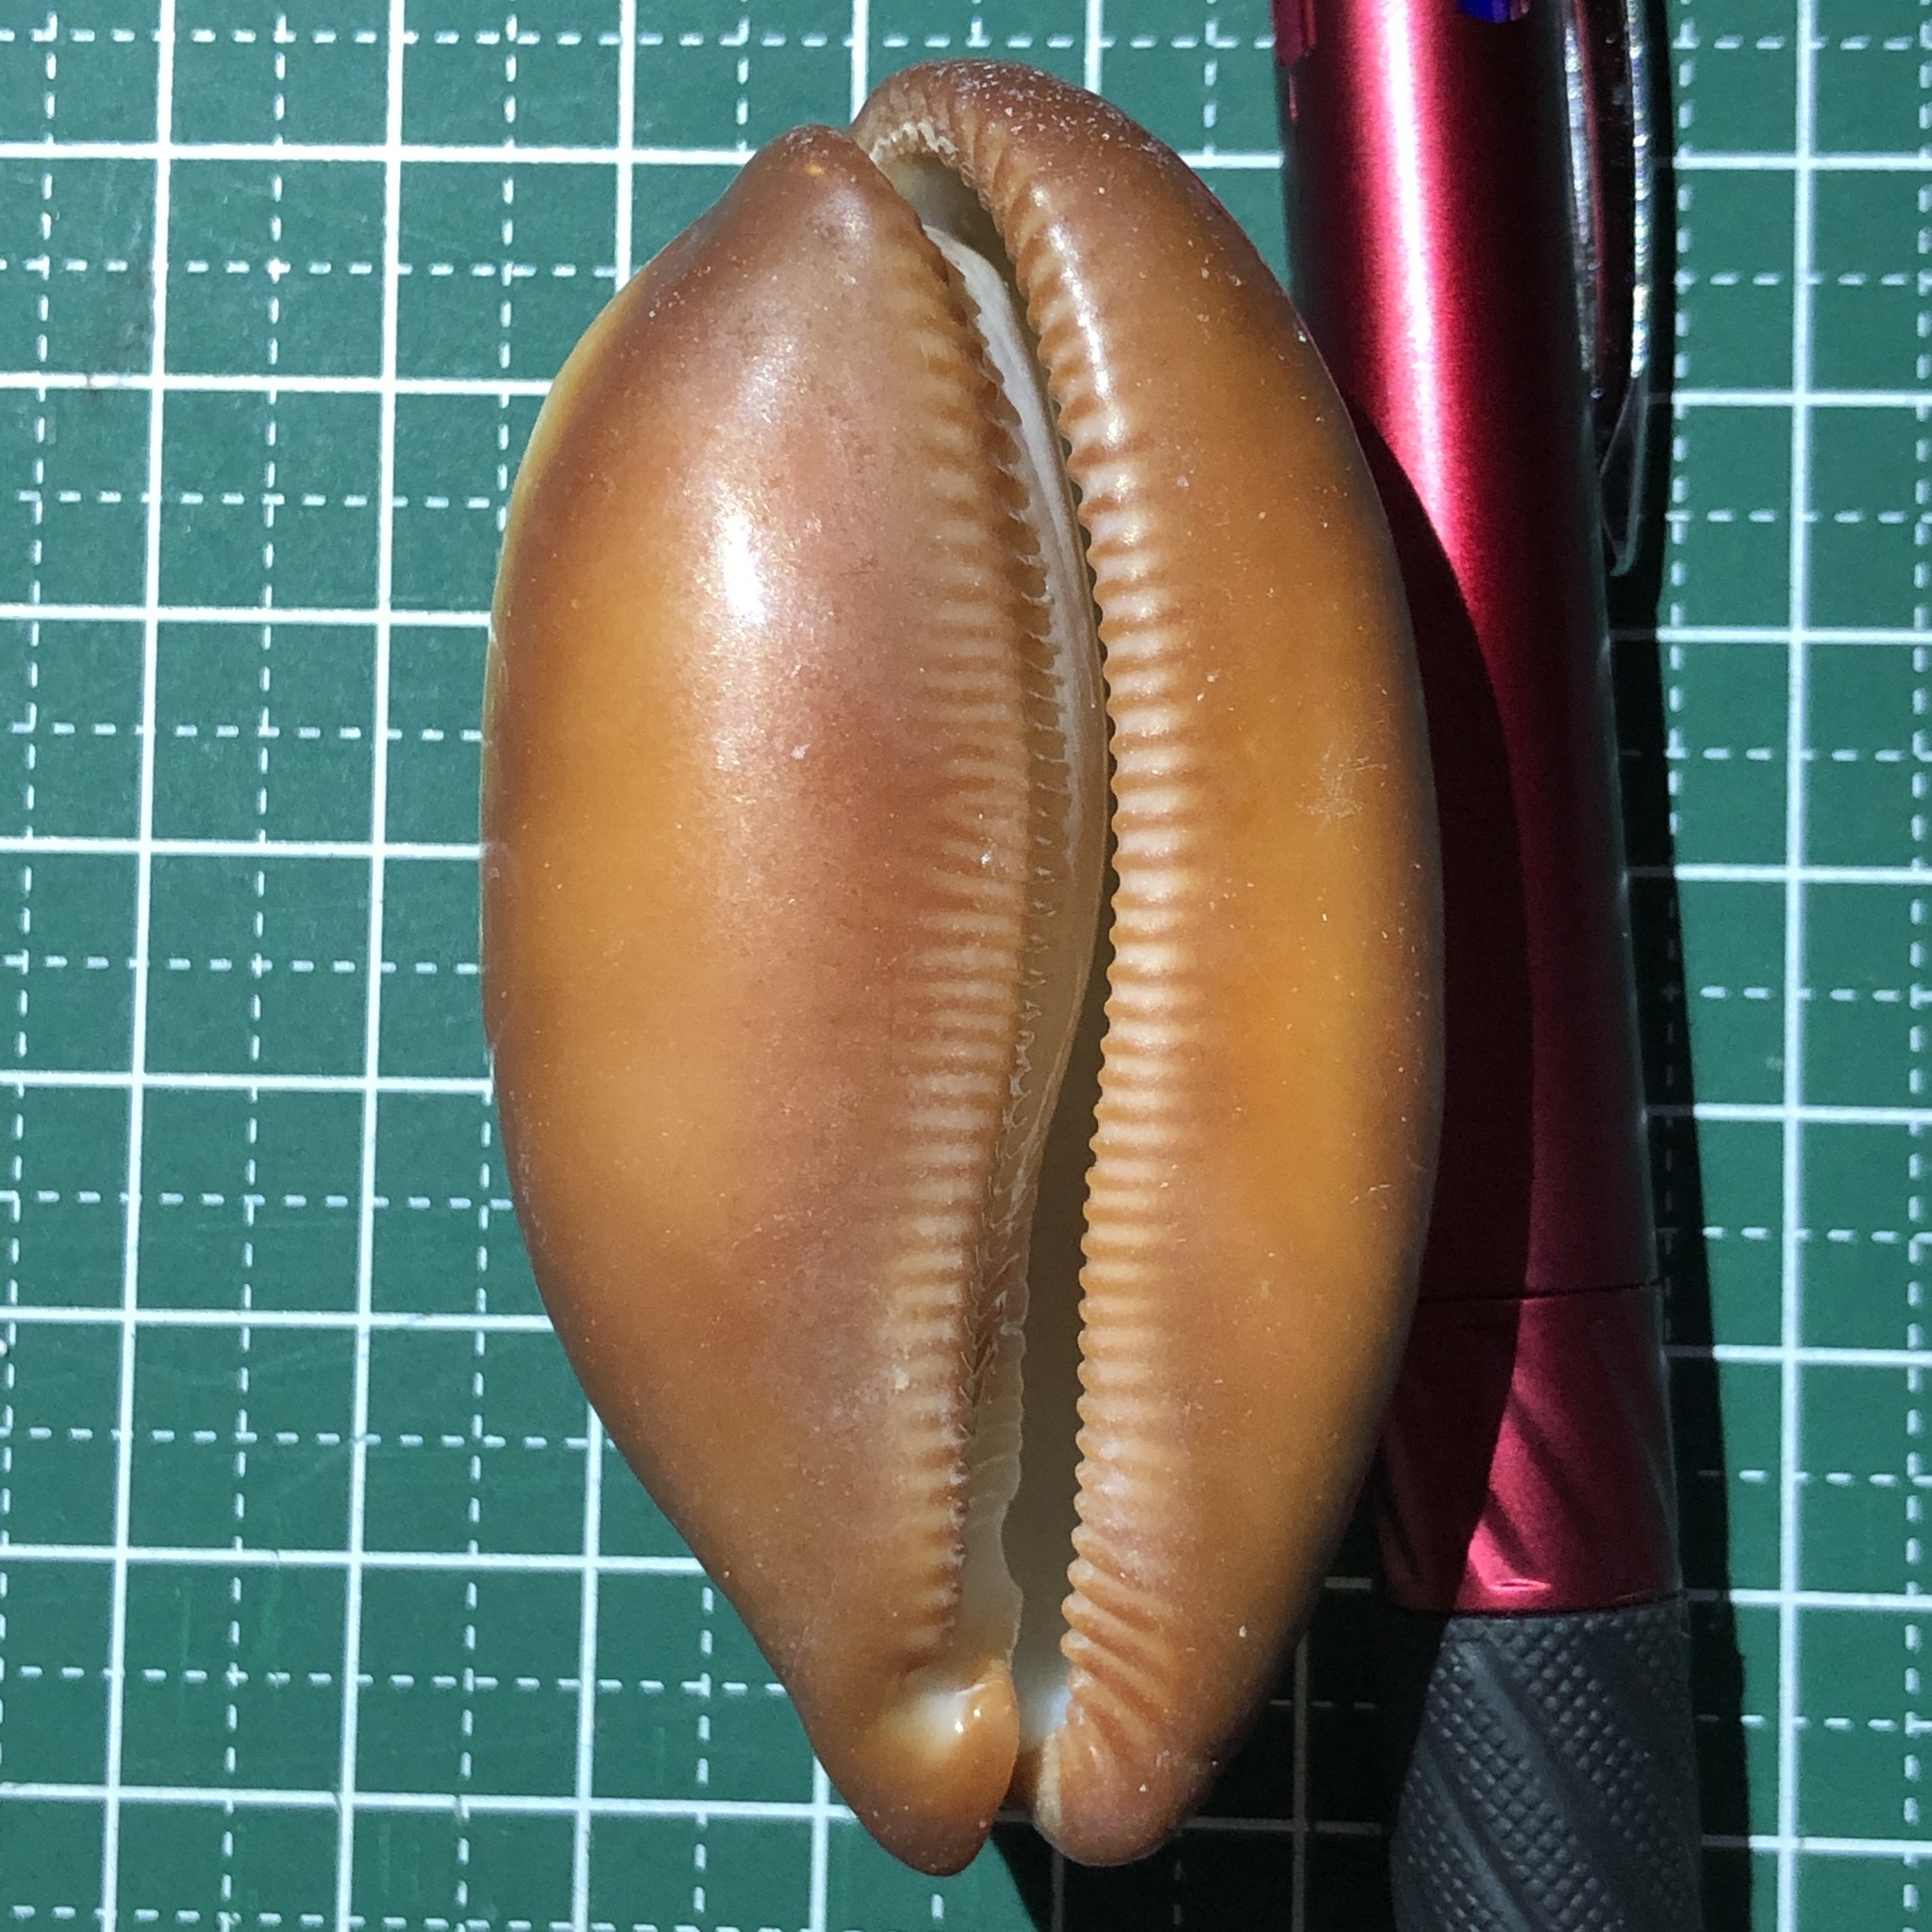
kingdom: Animalia
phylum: Mollusca
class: Gastropoda
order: Littorinimorpha
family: Cypraeidae
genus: Talparia
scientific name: Talparia talpa
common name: Mole cowrie
